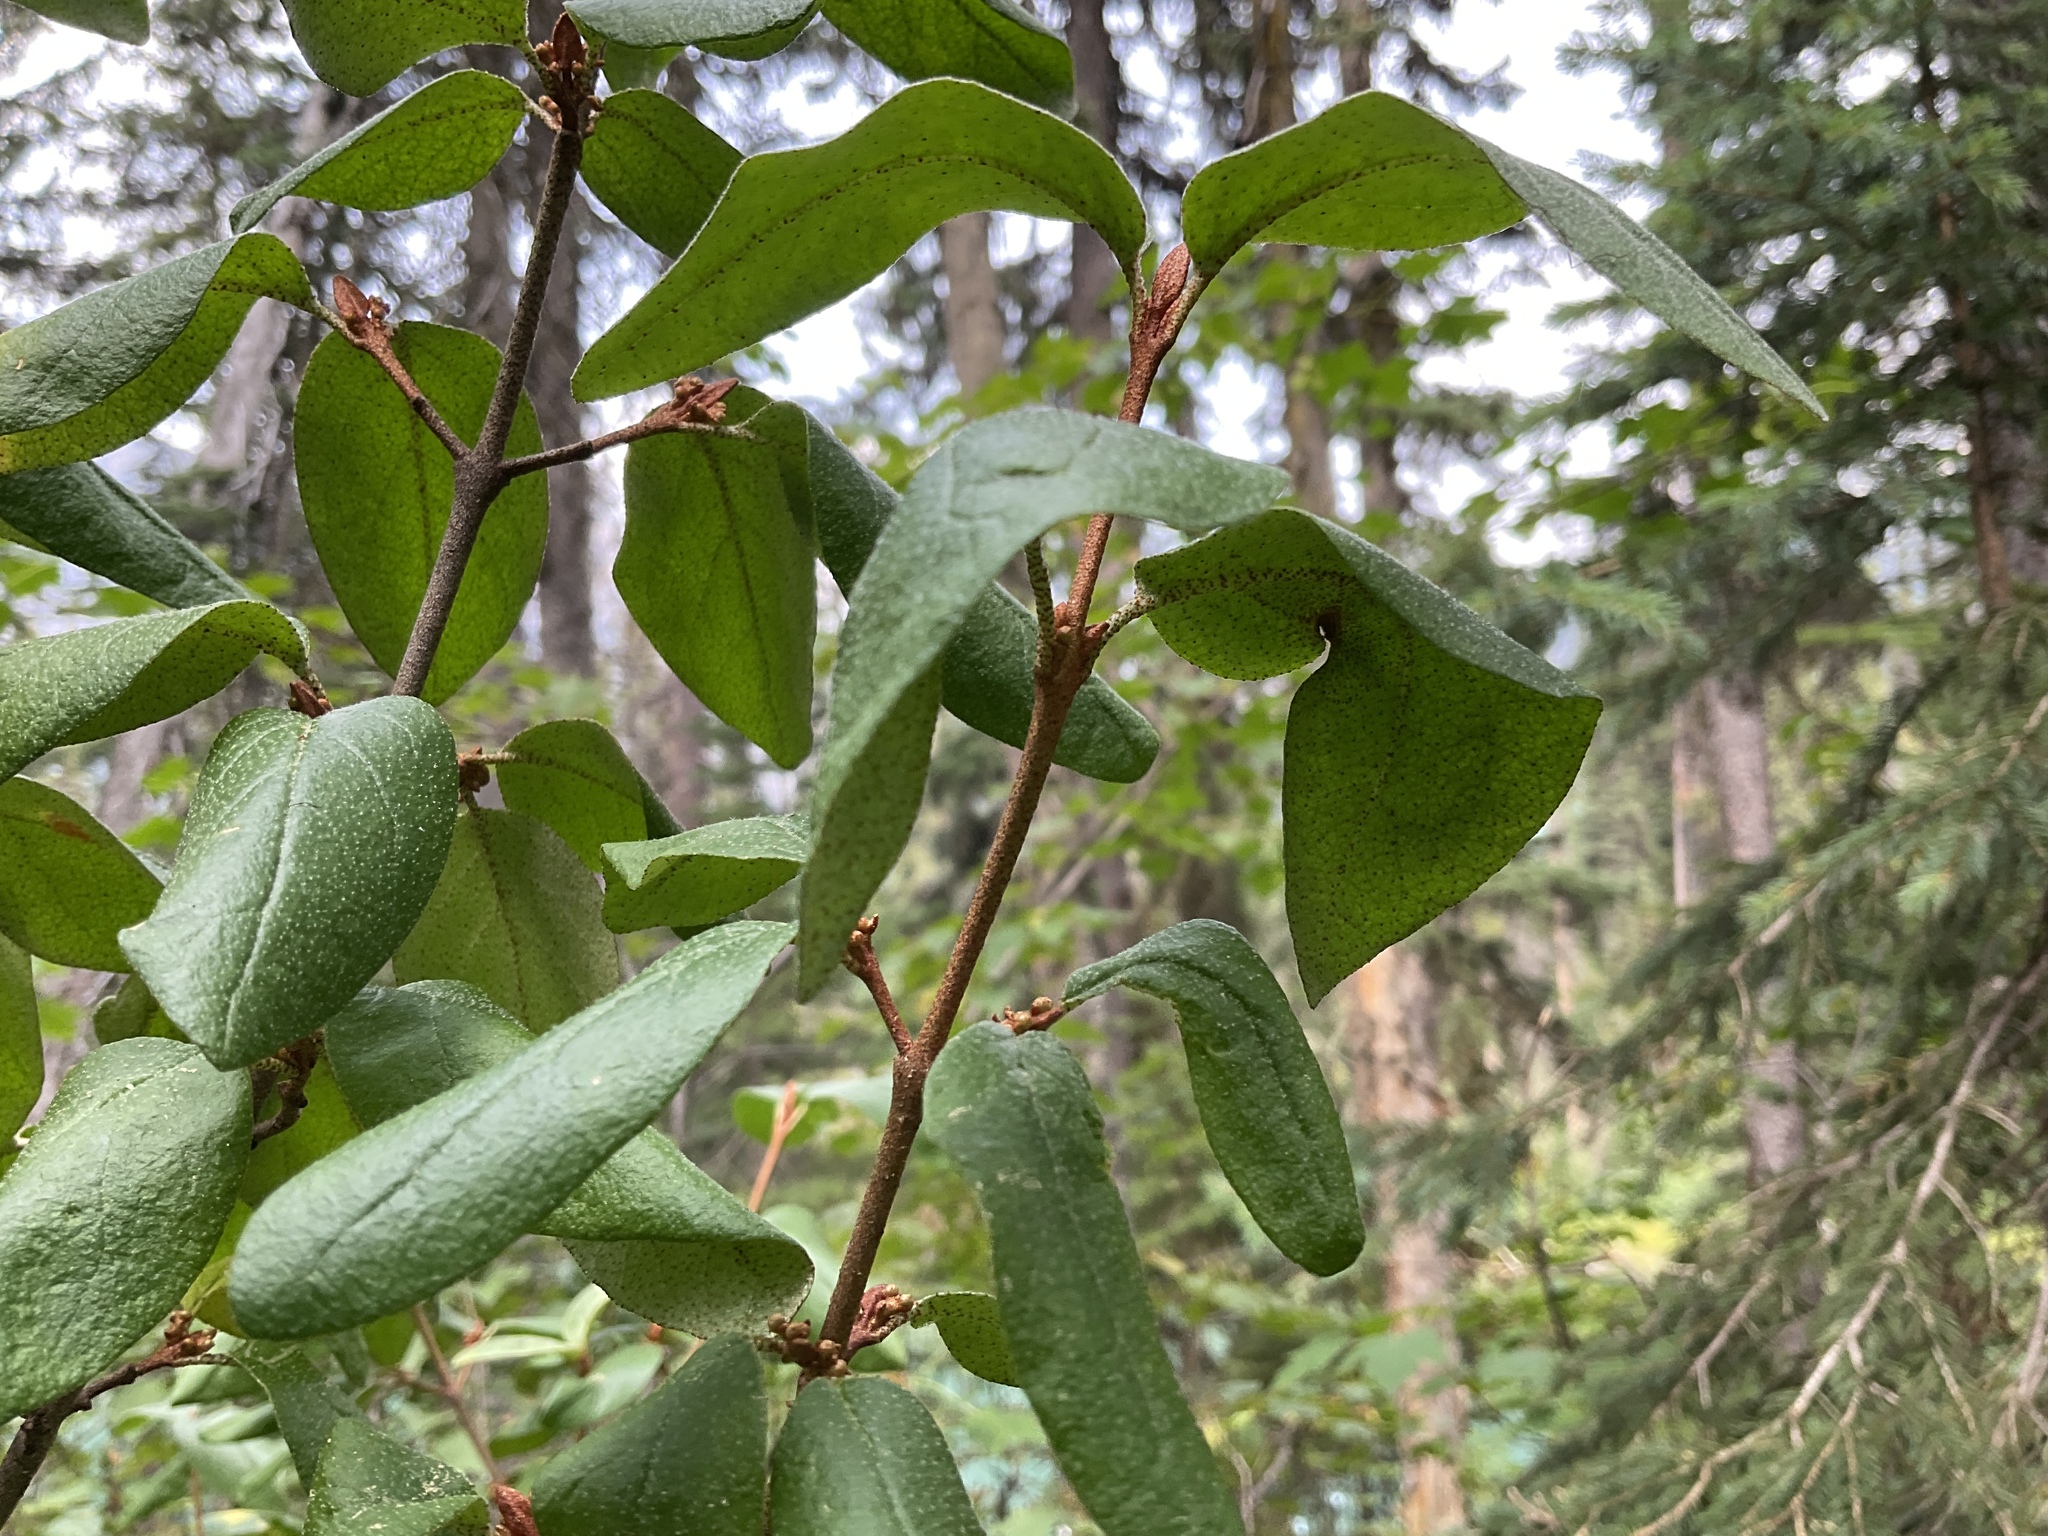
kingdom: Plantae
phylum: Tracheophyta
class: Magnoliopsida
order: Rosales
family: Elaeagnaceae
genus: Shepherdia
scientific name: Shepherdia canadensis
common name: Soapberry
